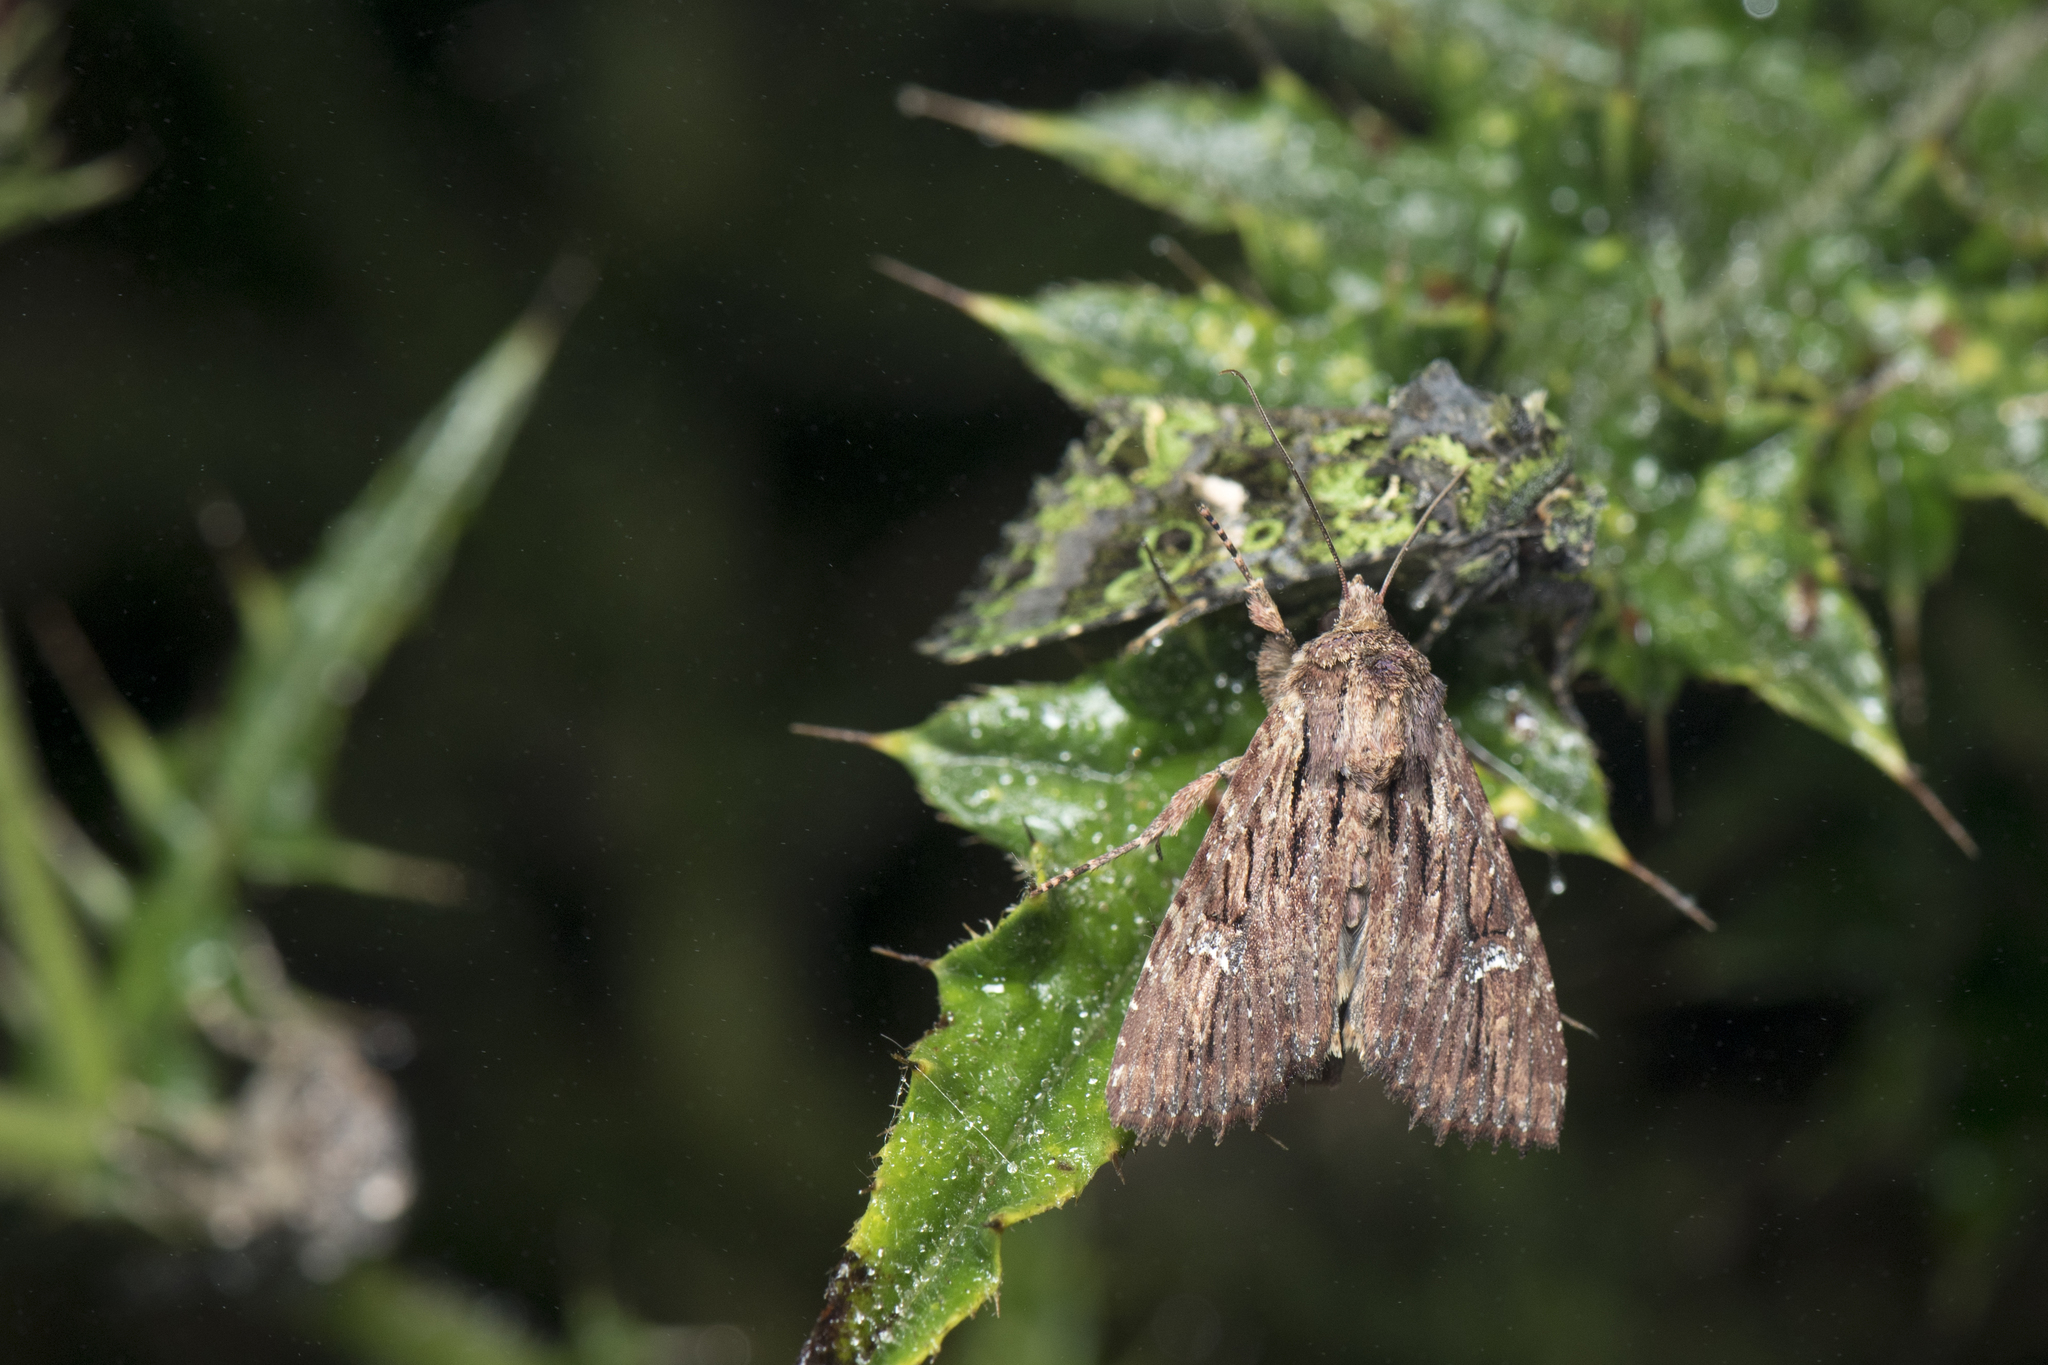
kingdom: Animalia
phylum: Arthropoda
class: Insecta
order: Lepidoptera
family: Noctuidae
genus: Apamea
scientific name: Apamea aquila
